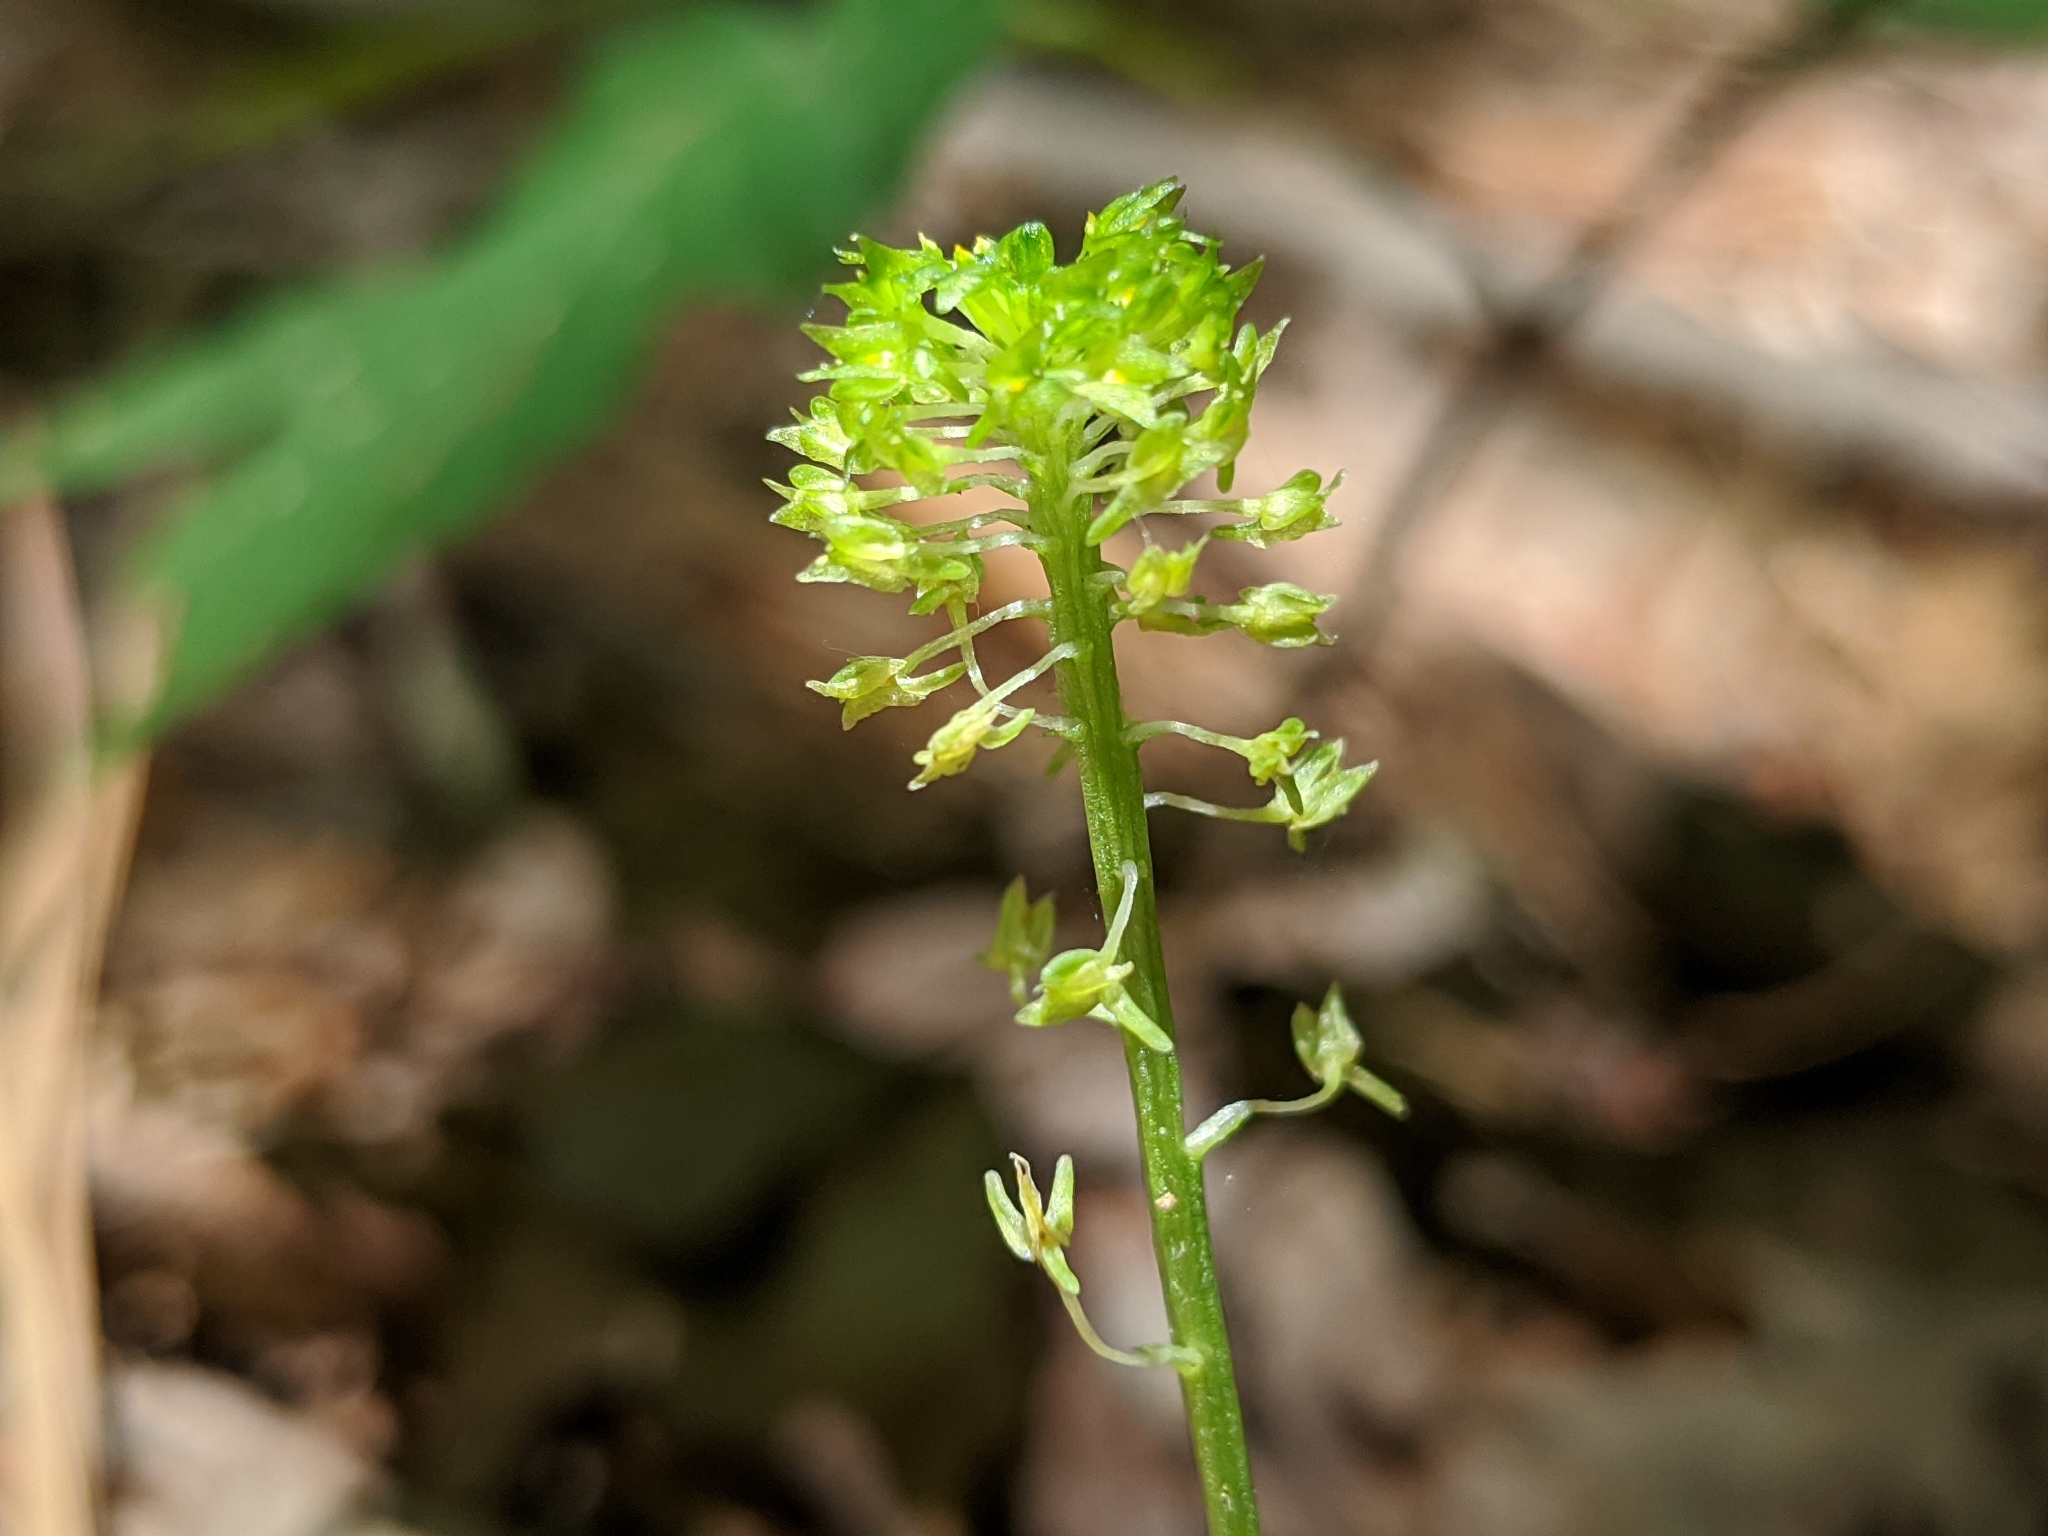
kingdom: Plantae
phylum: Tracheophyta
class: Liliopsida
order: Asparagales
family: Orchidaceae
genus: Malaxis
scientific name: Malaxis unifolia
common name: Green adder's-mouth
